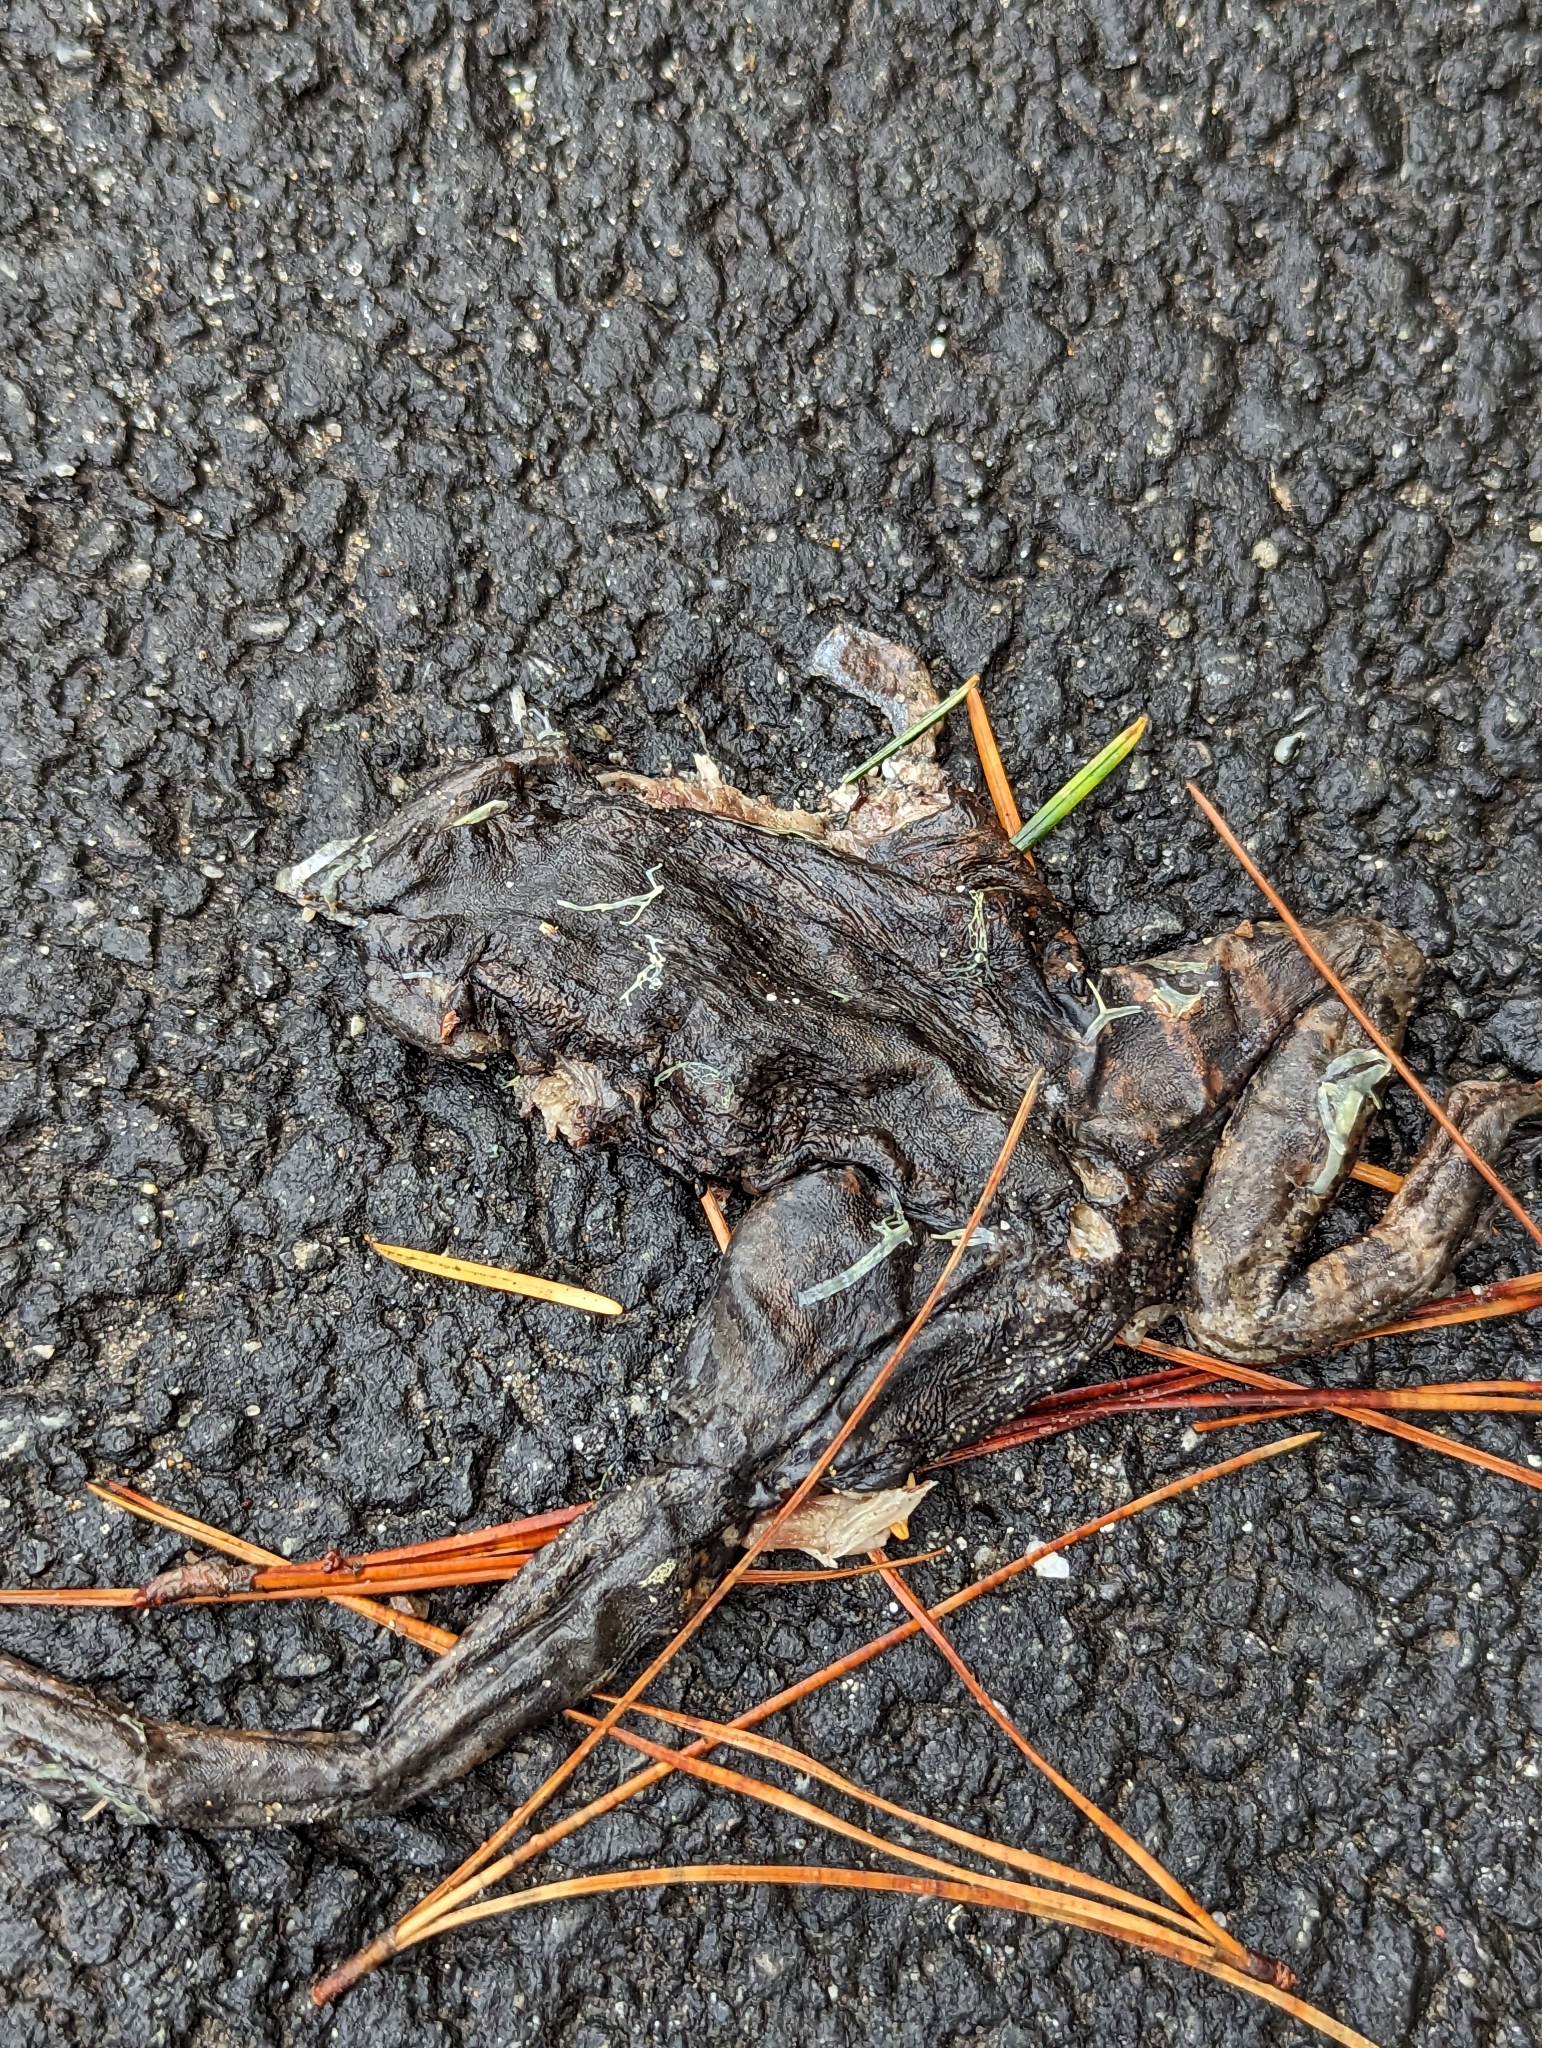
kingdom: Animalia
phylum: Chordata
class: Amphibia
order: Anura
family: Ranidae
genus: Rana
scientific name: Rana draytonii
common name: California red-legged frog
